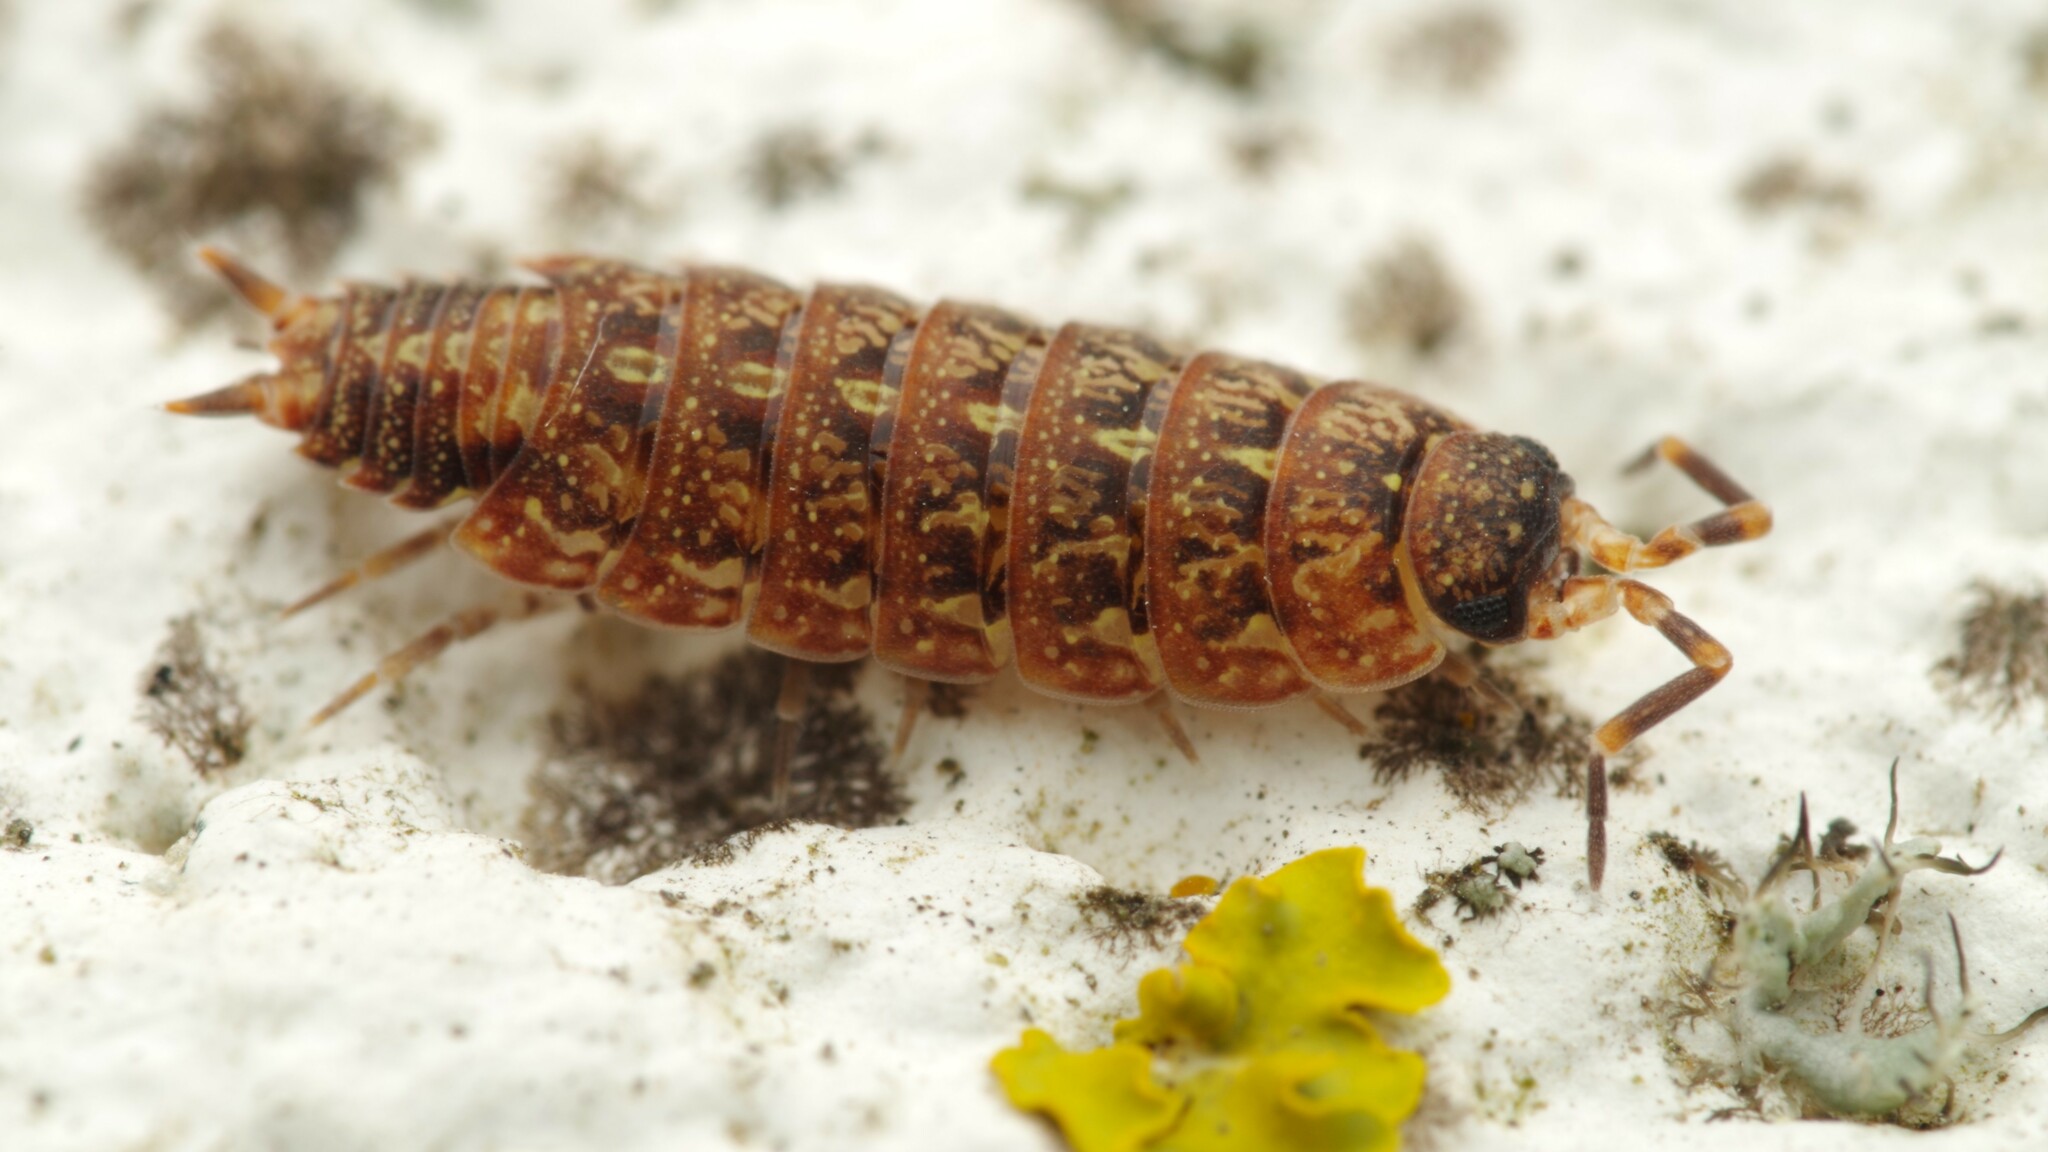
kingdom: Animalia
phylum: Arthropoda
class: Malacostraca
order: Isopoda
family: Porcellionidae
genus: Acaeroplastes
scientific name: Acaeroplastes melanurus
